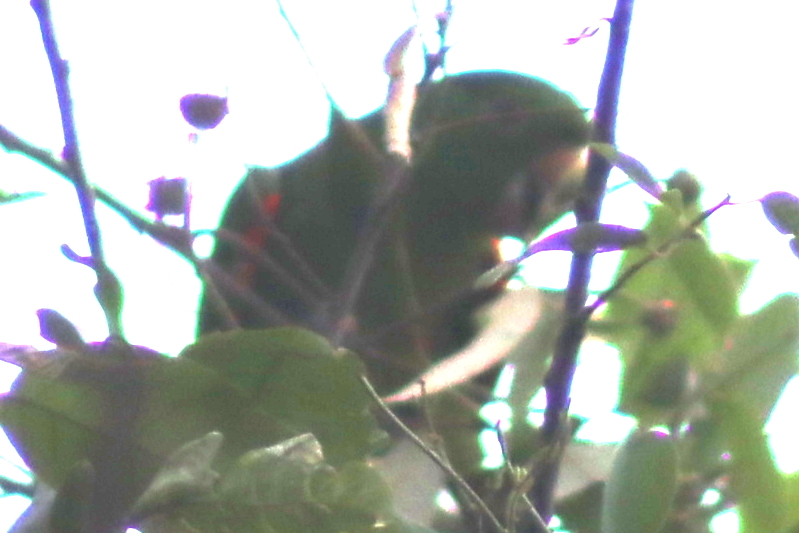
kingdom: Animalia
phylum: Chordata
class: Aves
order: Psittaciformes
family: Psittacidae
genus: Aratinga
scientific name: Aratinga leucophthalma
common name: White-eyed parakeet
